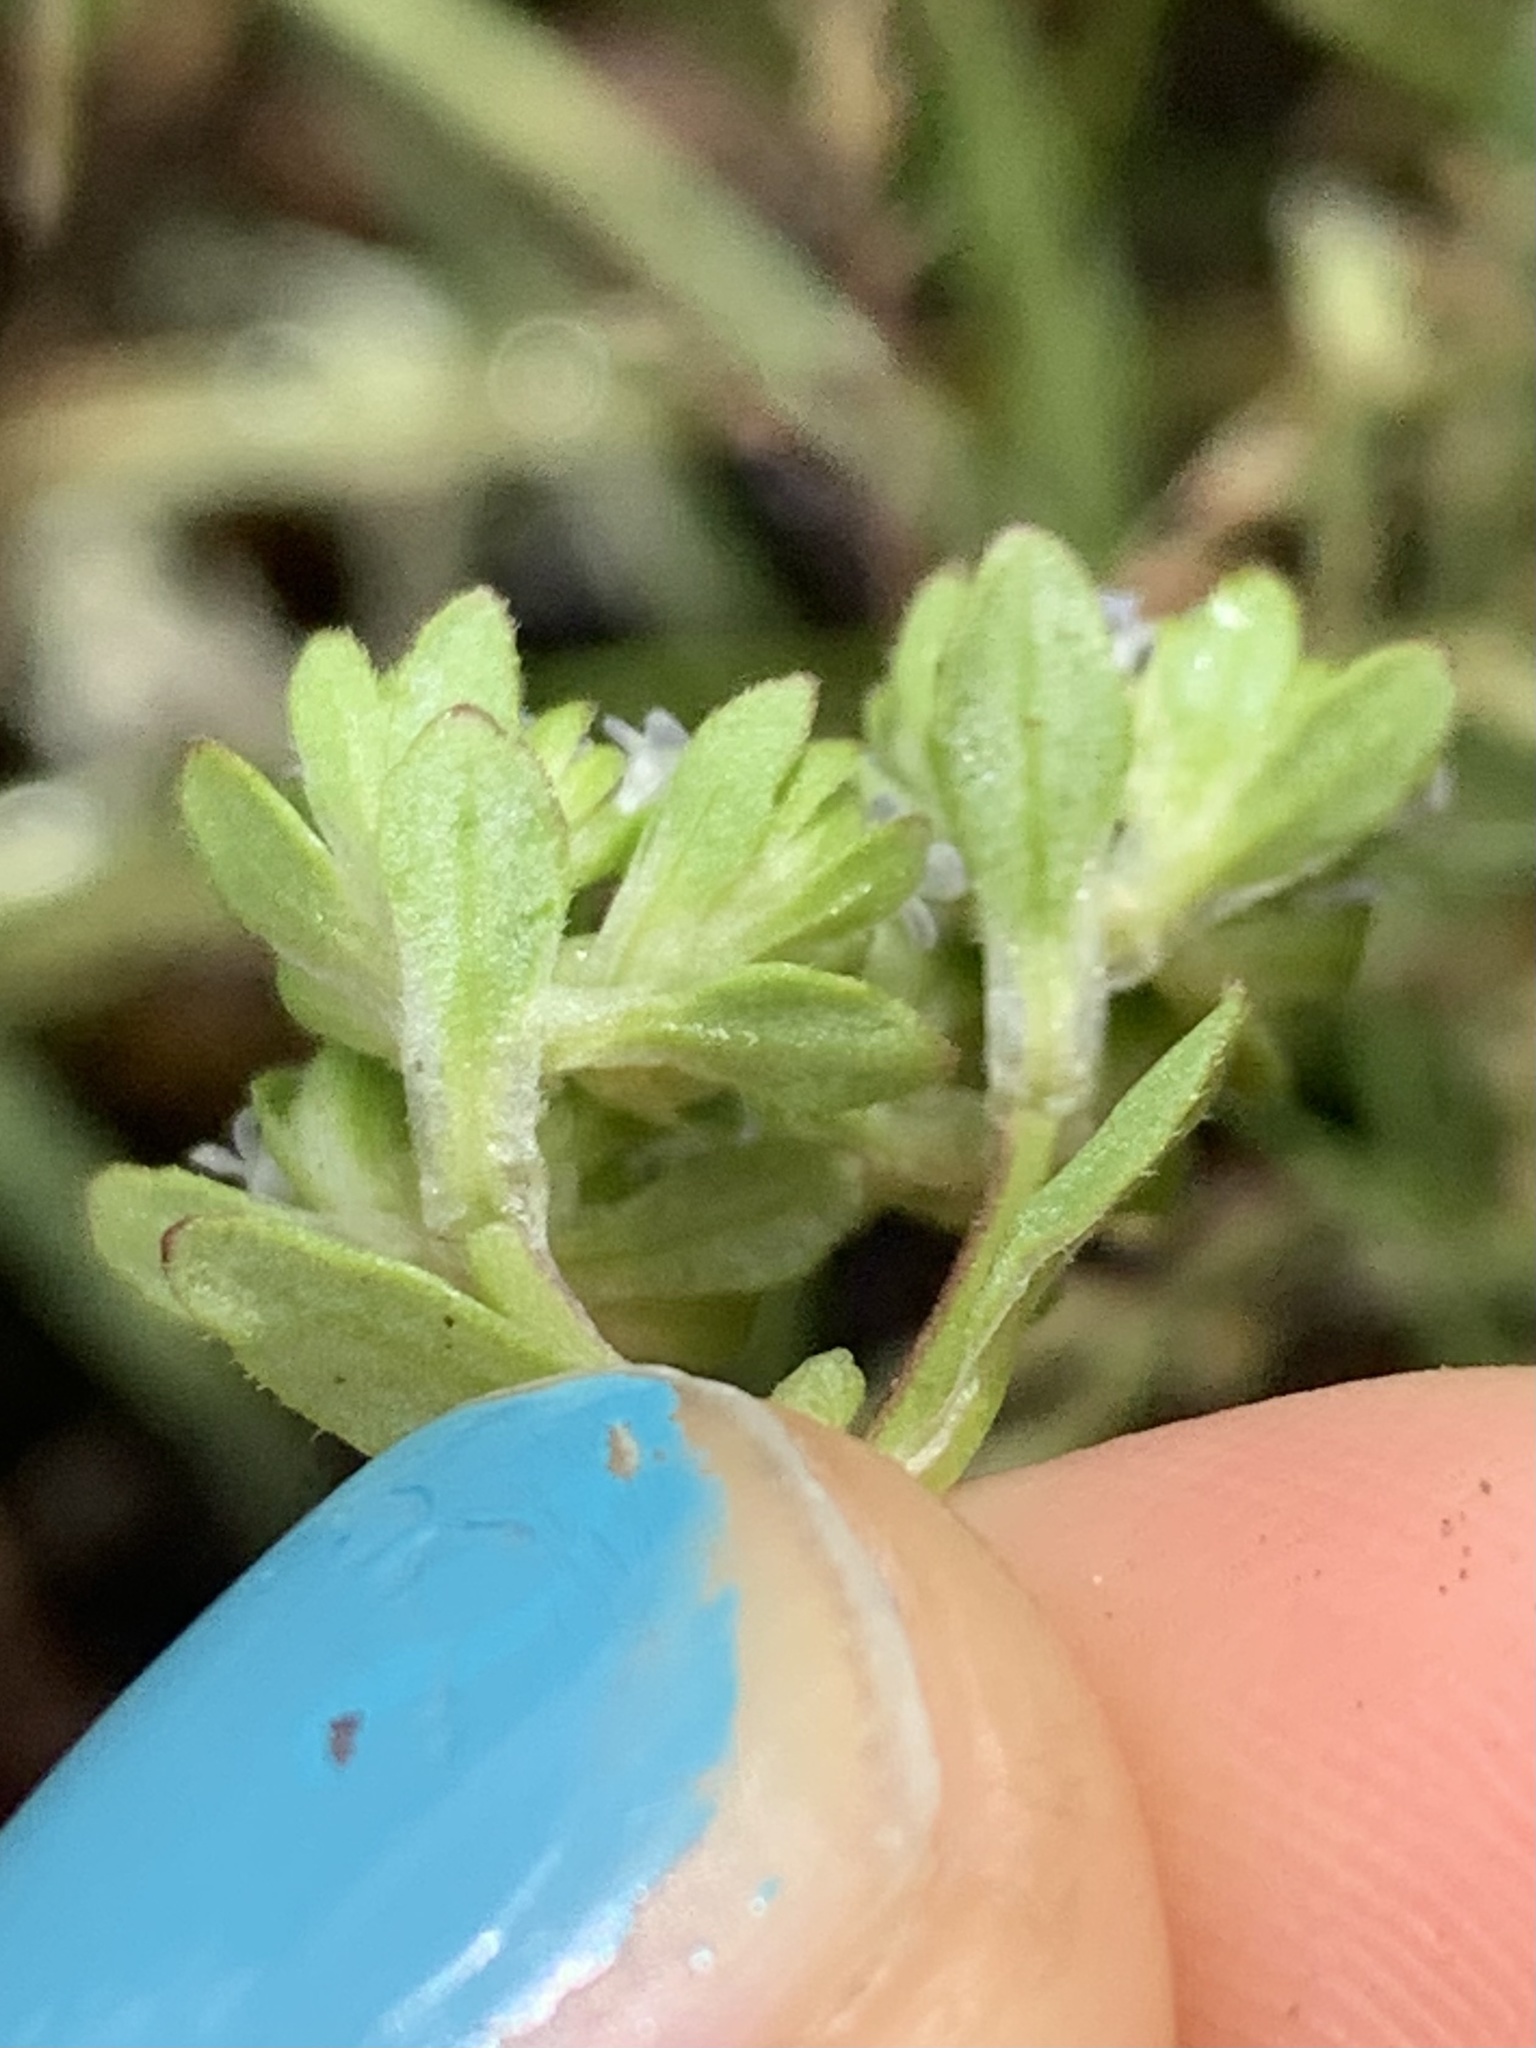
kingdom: Plantae
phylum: Tracheophyta
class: Magnoliopsida
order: Dipsacales
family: Caprifoliaceae
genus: Valerianella
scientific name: Valerianella locusta
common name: Common cornsalad
